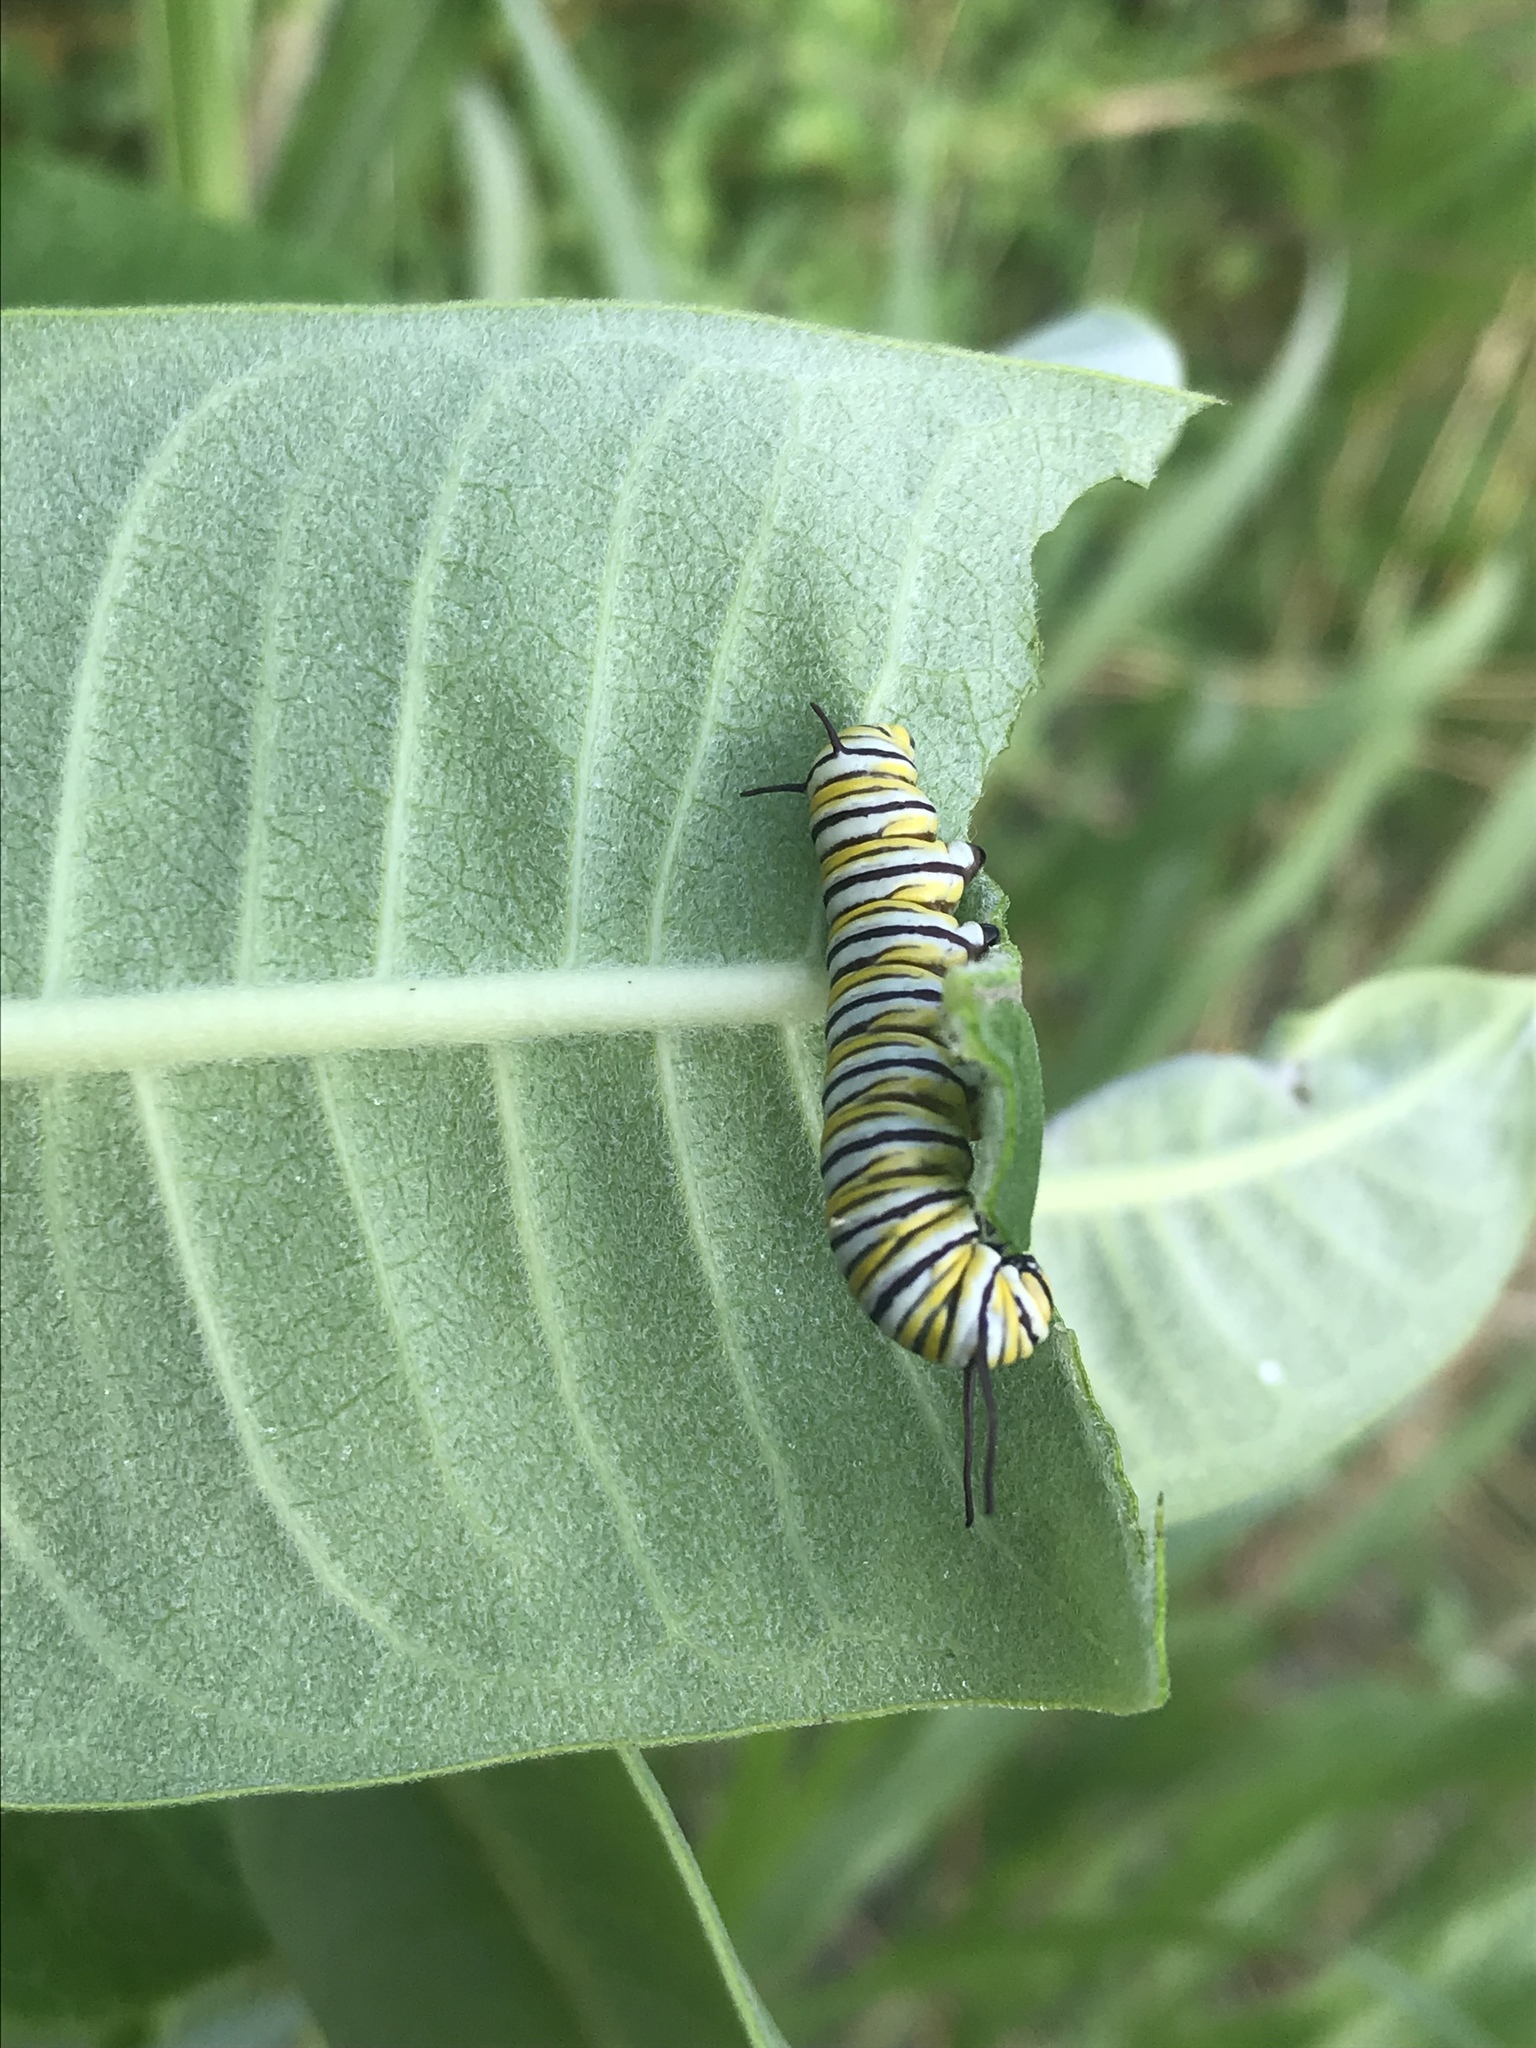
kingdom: Animalia
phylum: Arthropoda
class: Insecta
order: Lepidoptera
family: Nymphalidae
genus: Danaus
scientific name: Danaus plexippus
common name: Monarch
